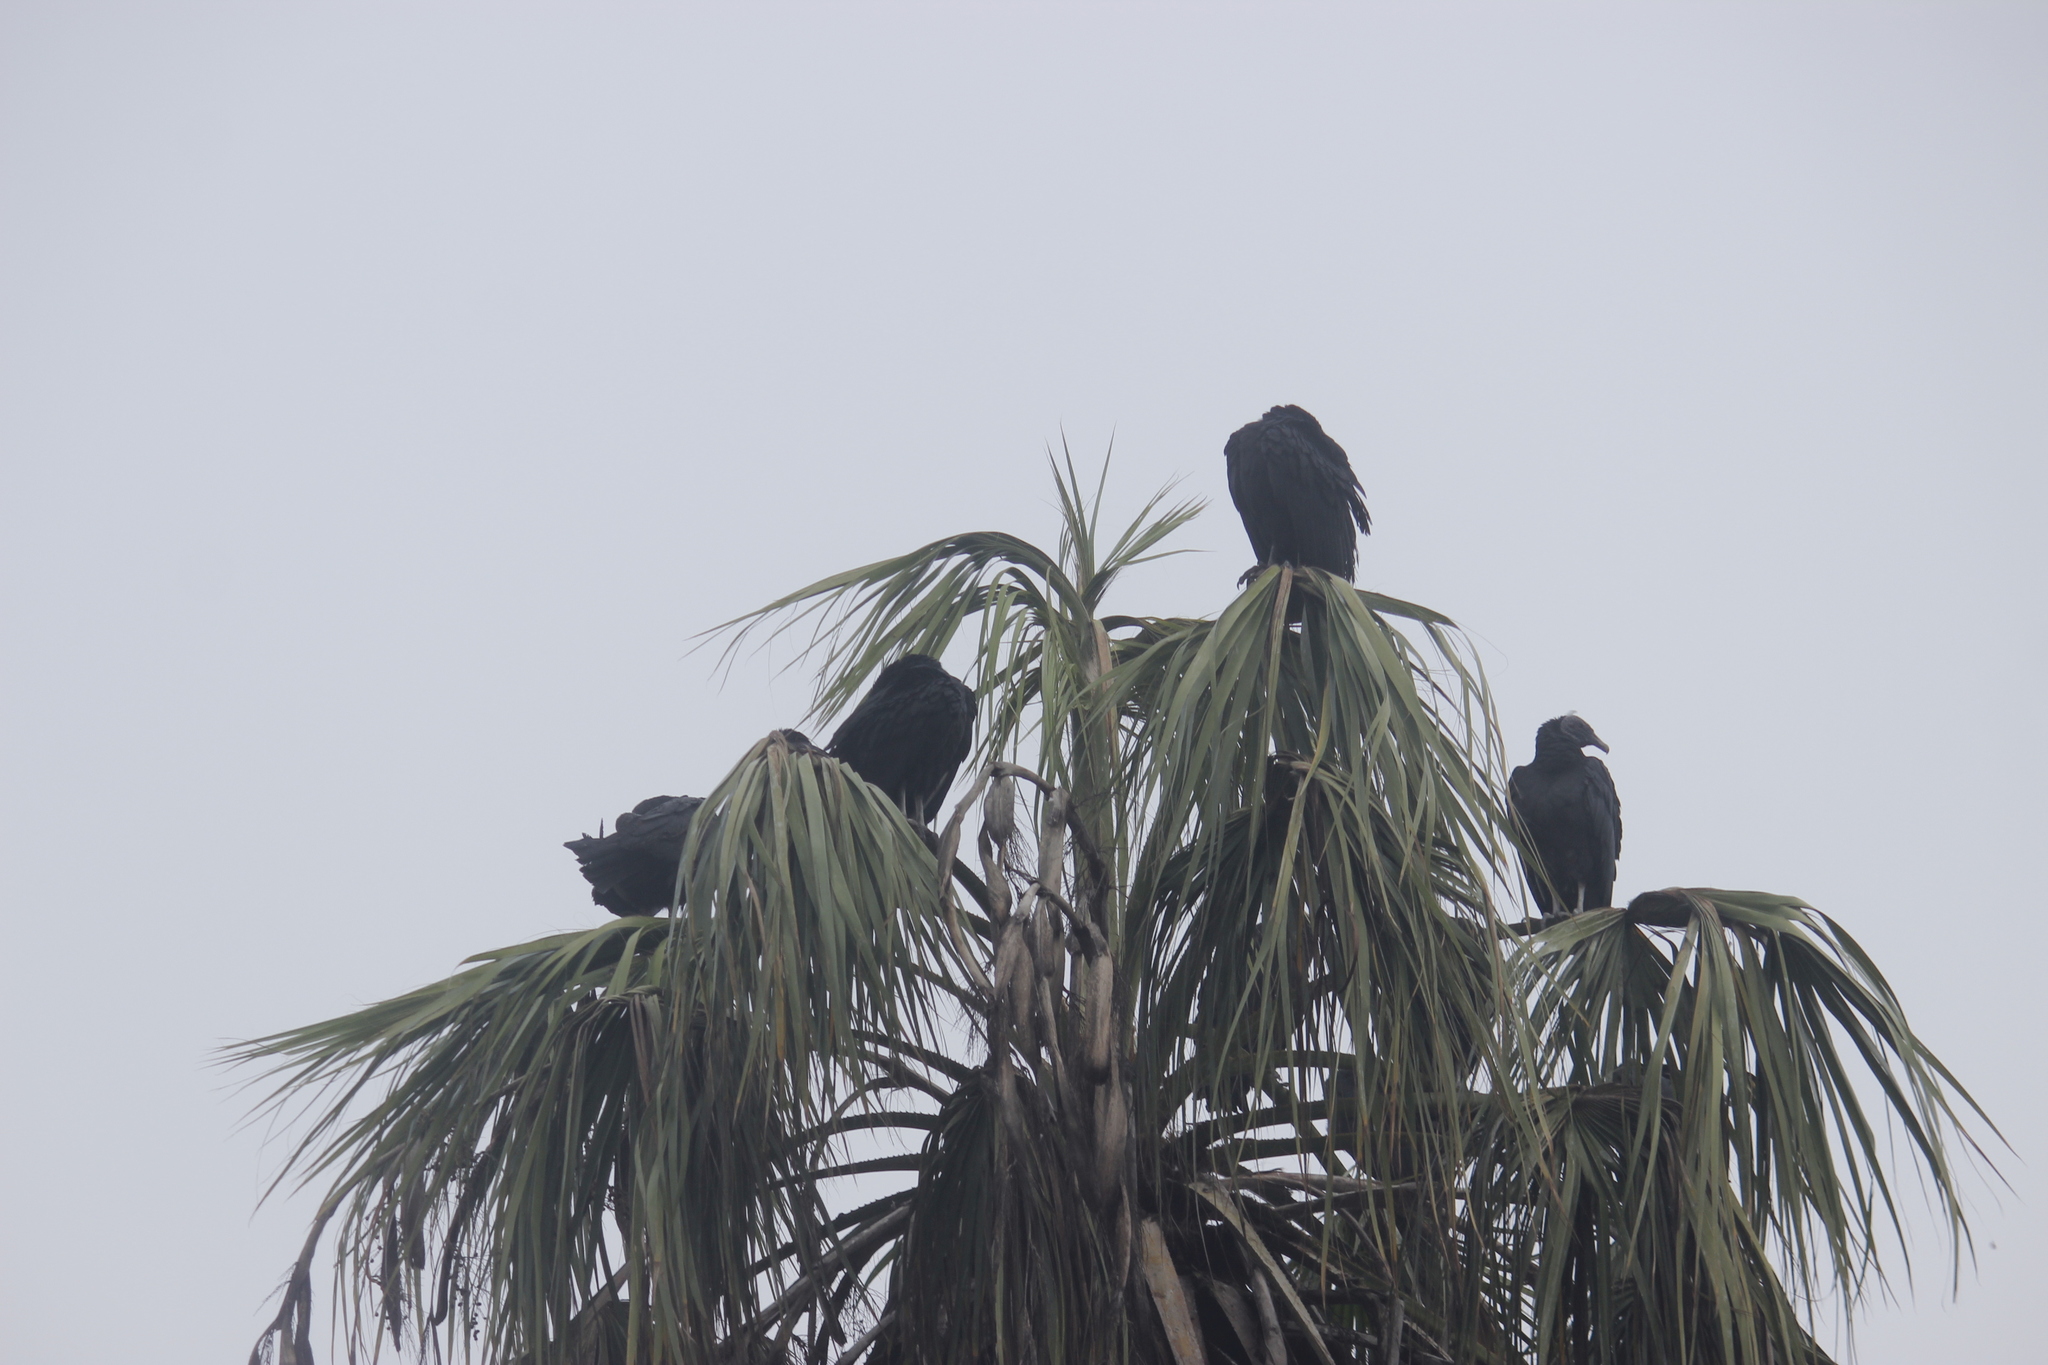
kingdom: Animalia
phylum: Chordata
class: Aves
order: Accipitriformes
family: Cathartidae
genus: Coragyps
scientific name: Coragyps atratus
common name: Black vulture
